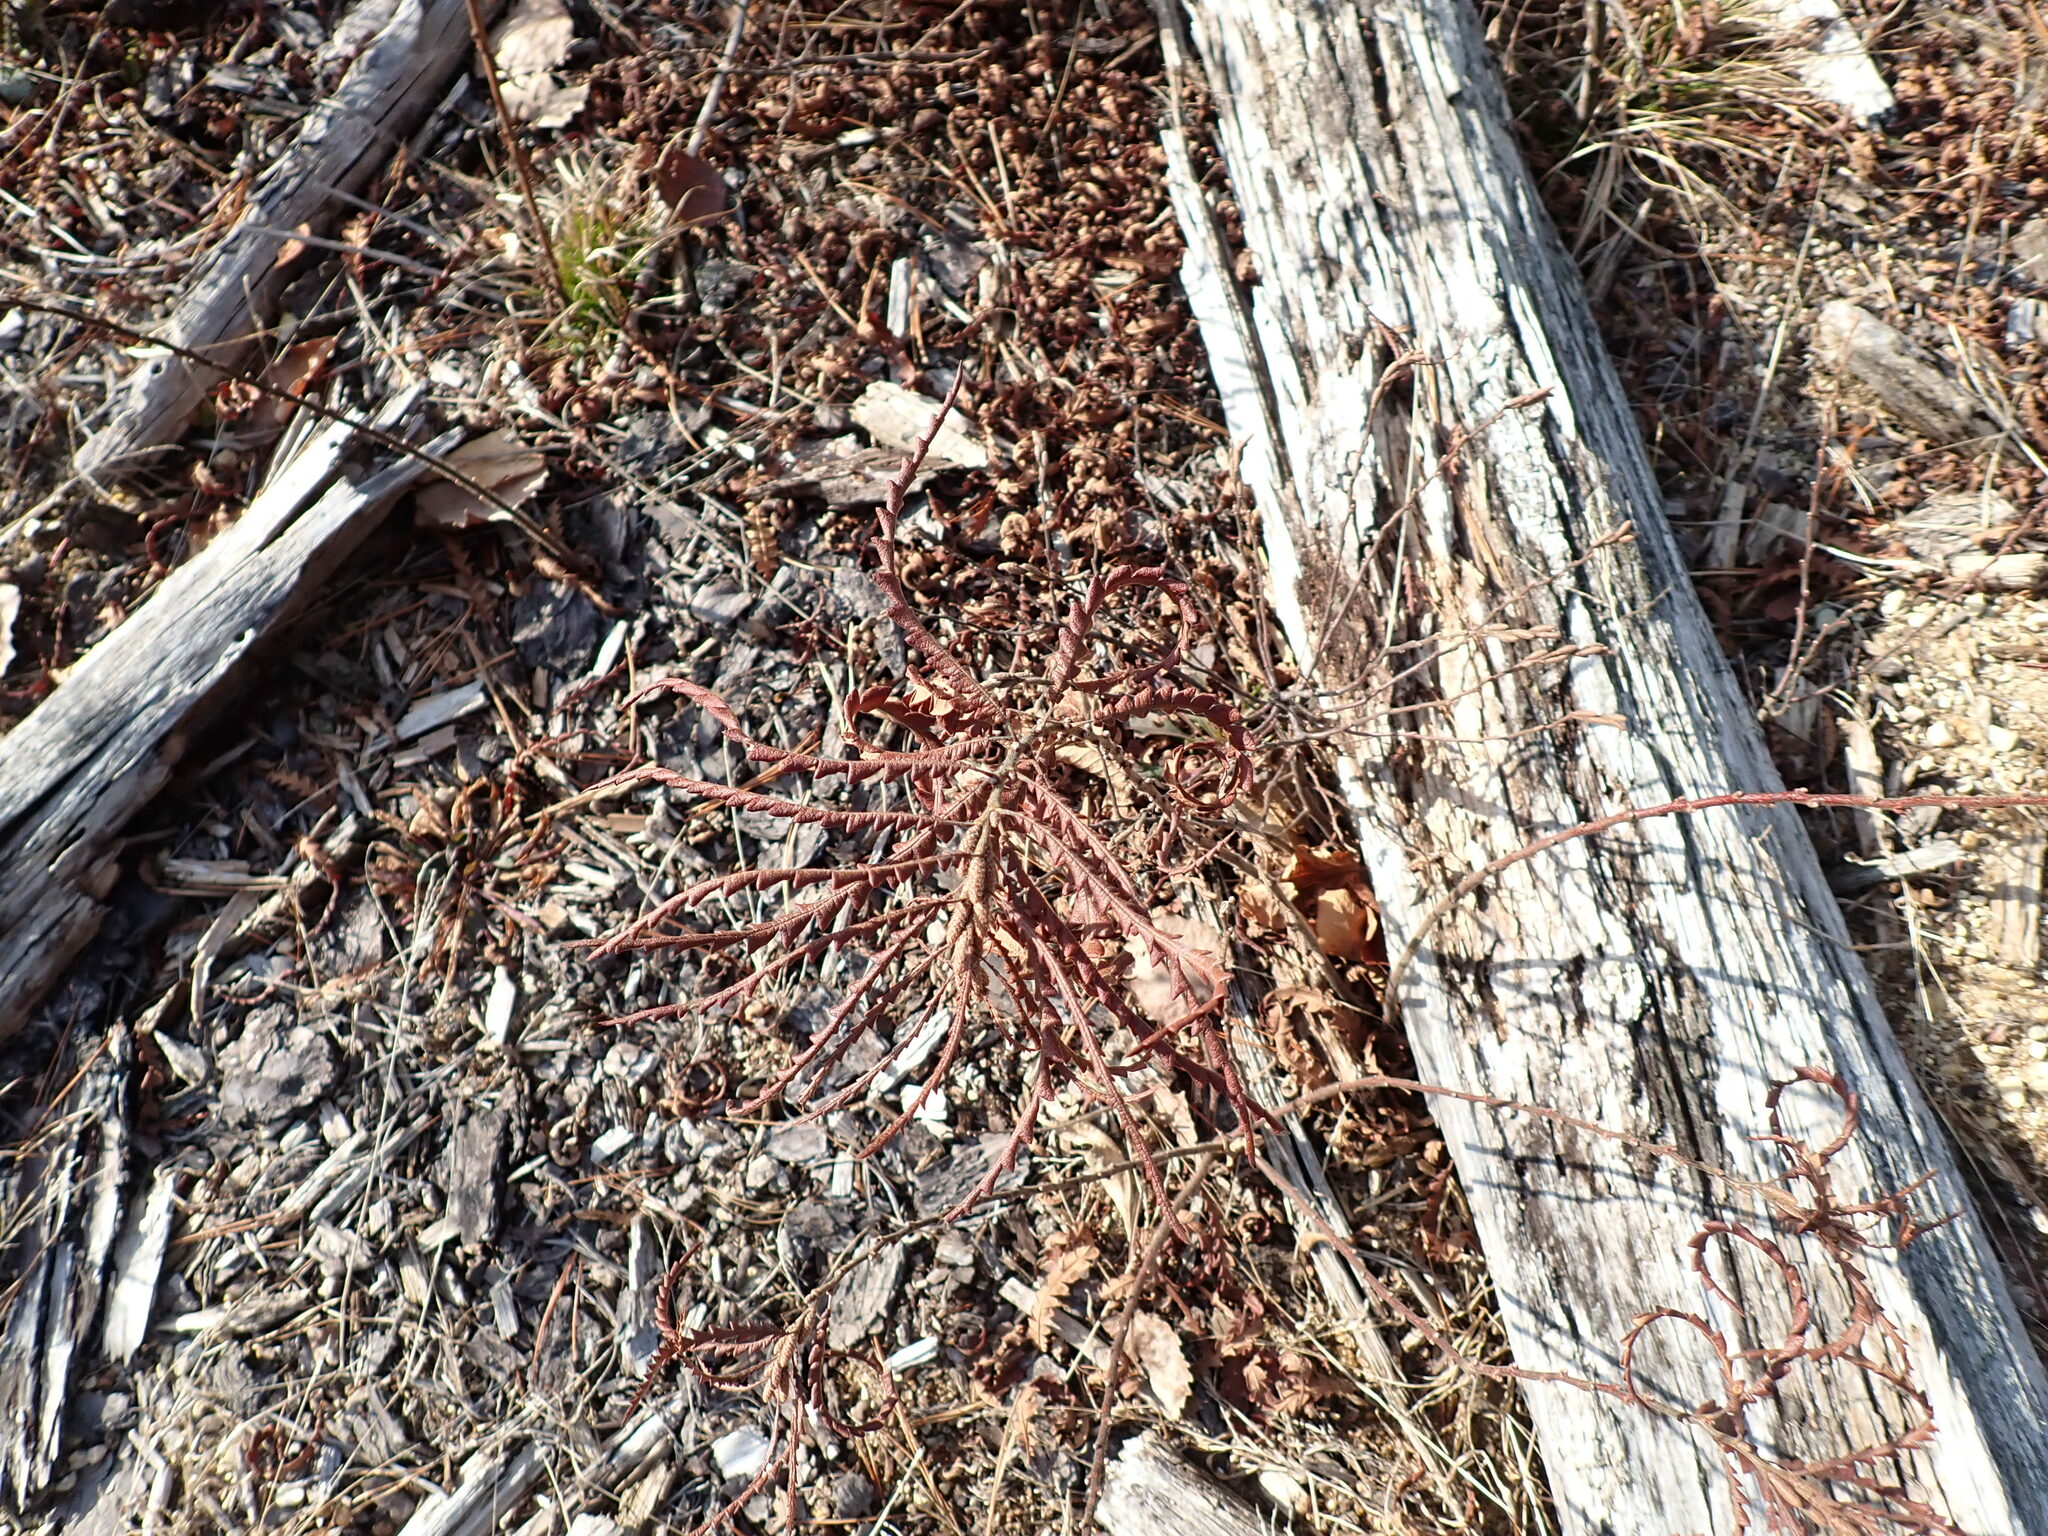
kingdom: Plantae
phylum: Tracheophyta
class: Magnoliopsida
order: Fagales
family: Myricaceae
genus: Comptonia
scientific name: Comptonia peregrina
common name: Sweet-fern
